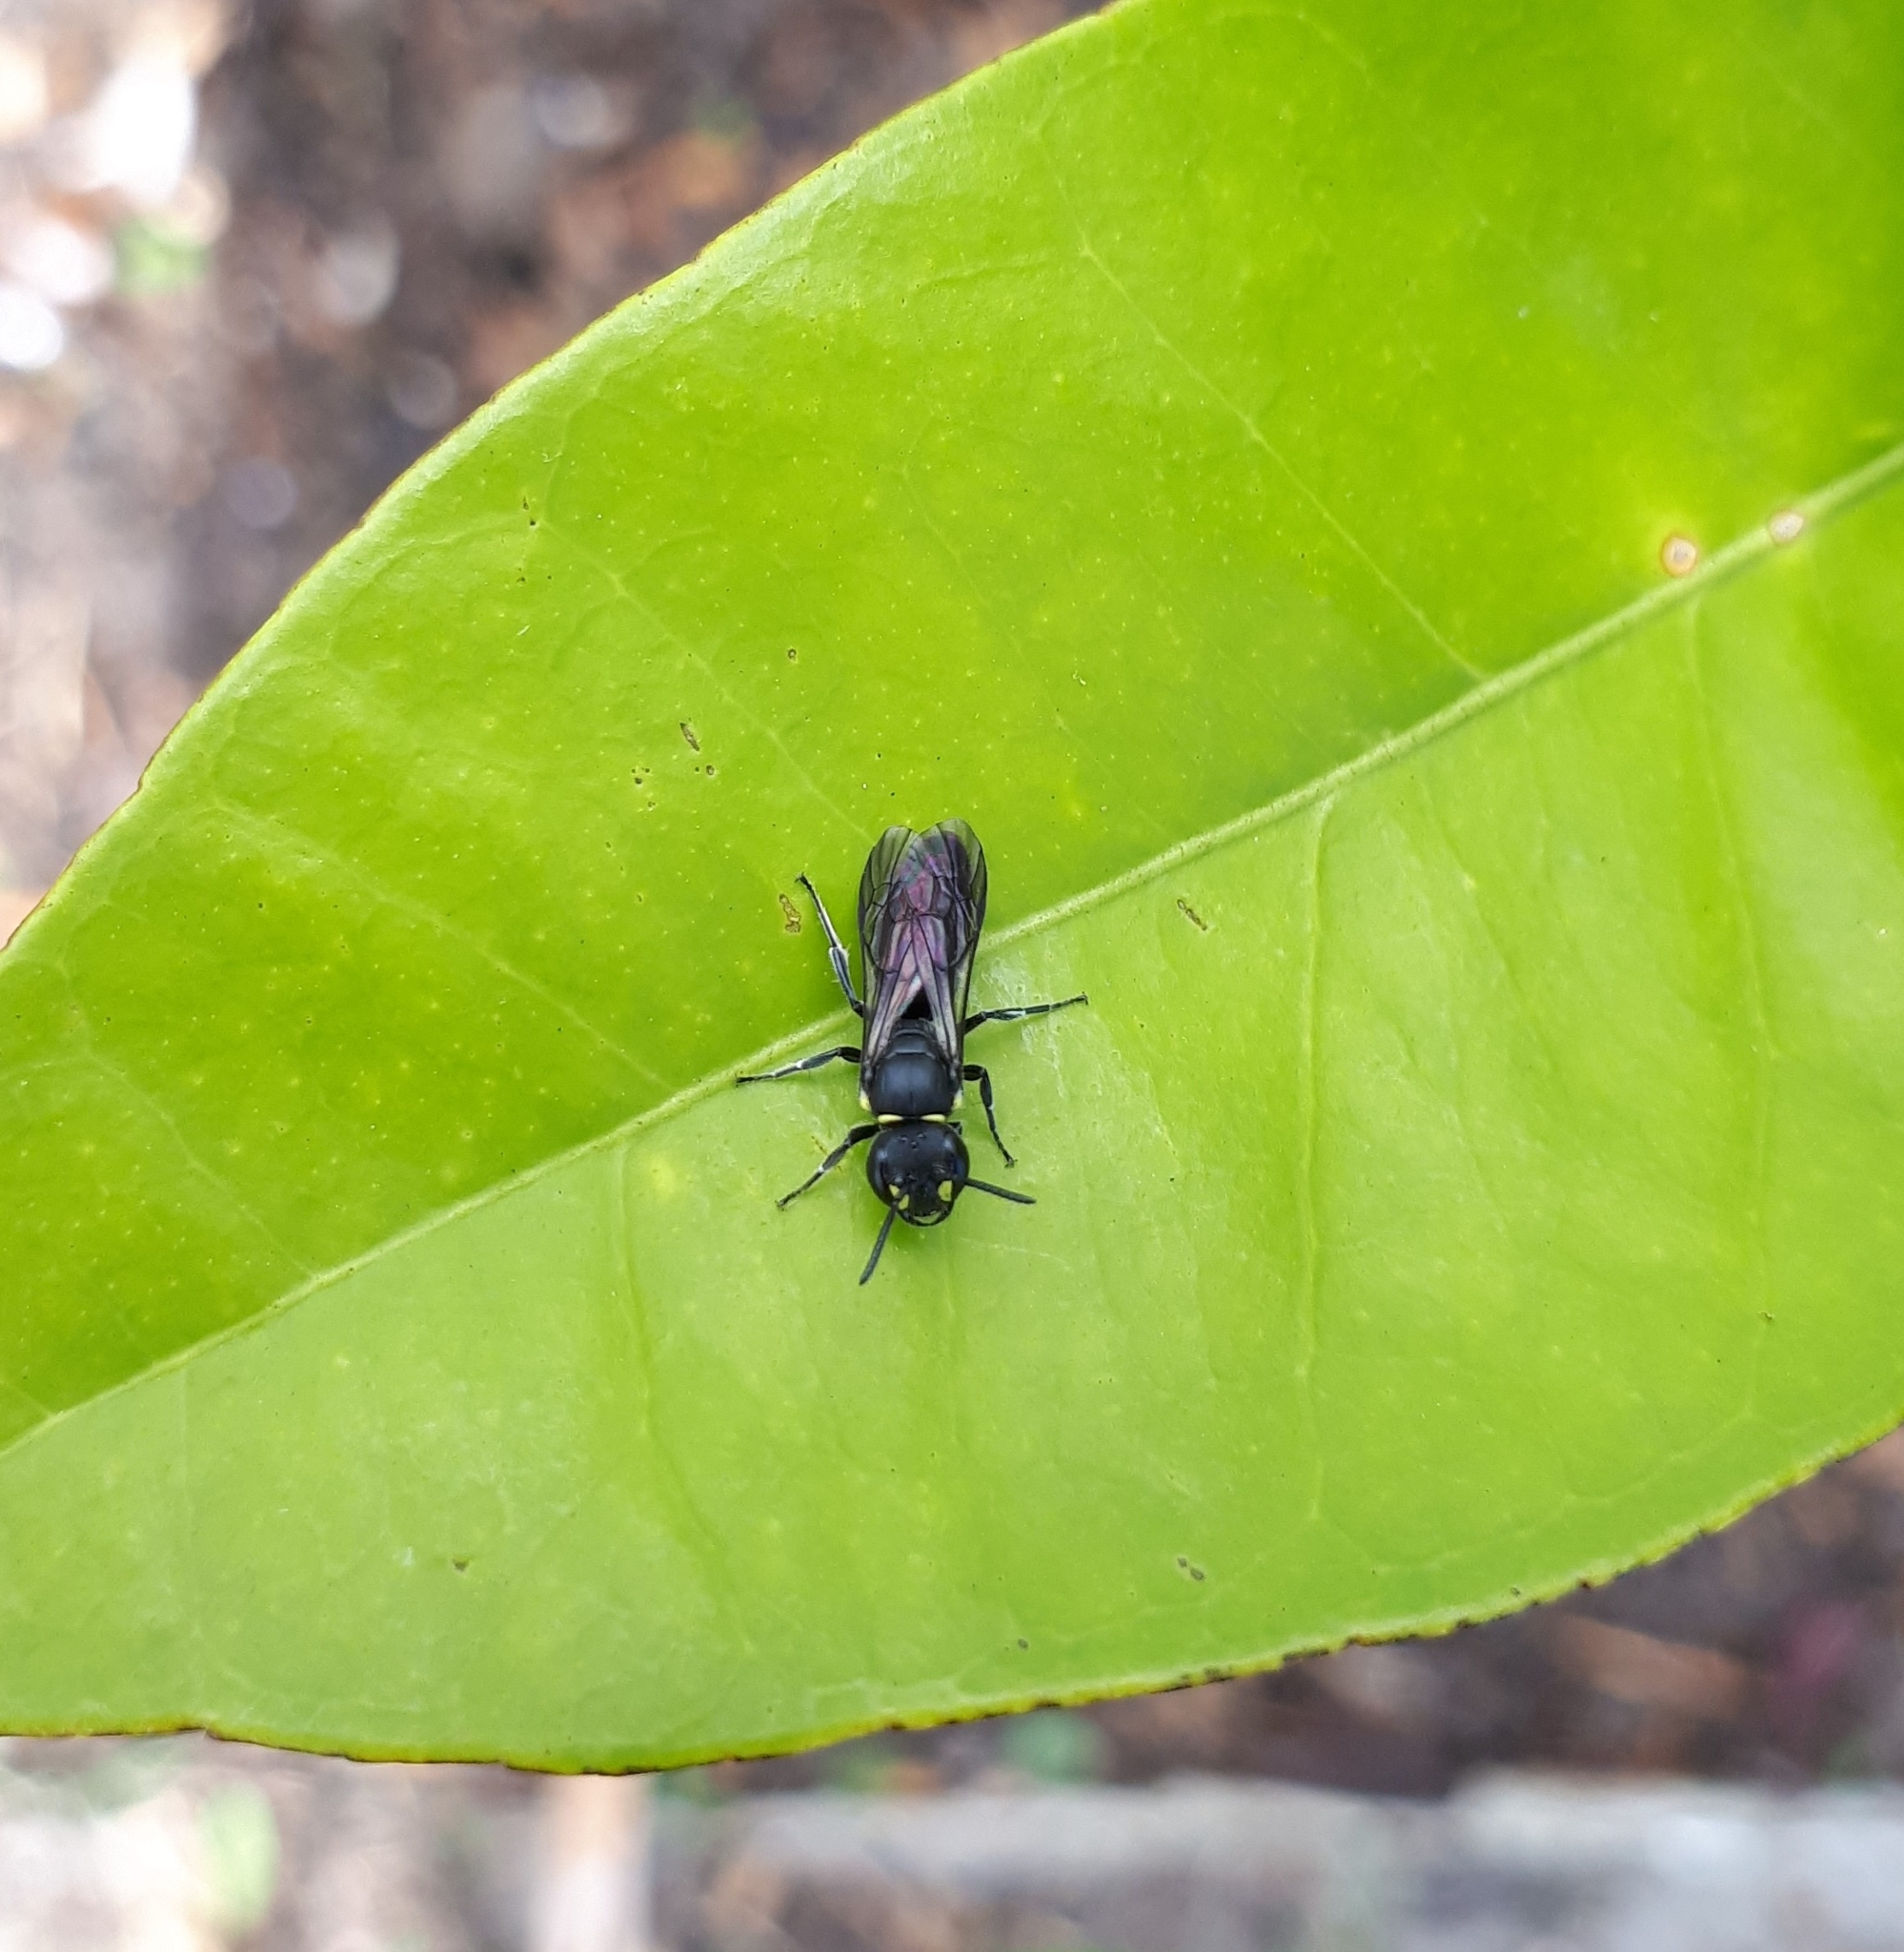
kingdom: Animalia
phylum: Arthropoda
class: Insecta
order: Hymenoptera
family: Colletidae
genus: Hylaeus
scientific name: Hylaeus relegatus
